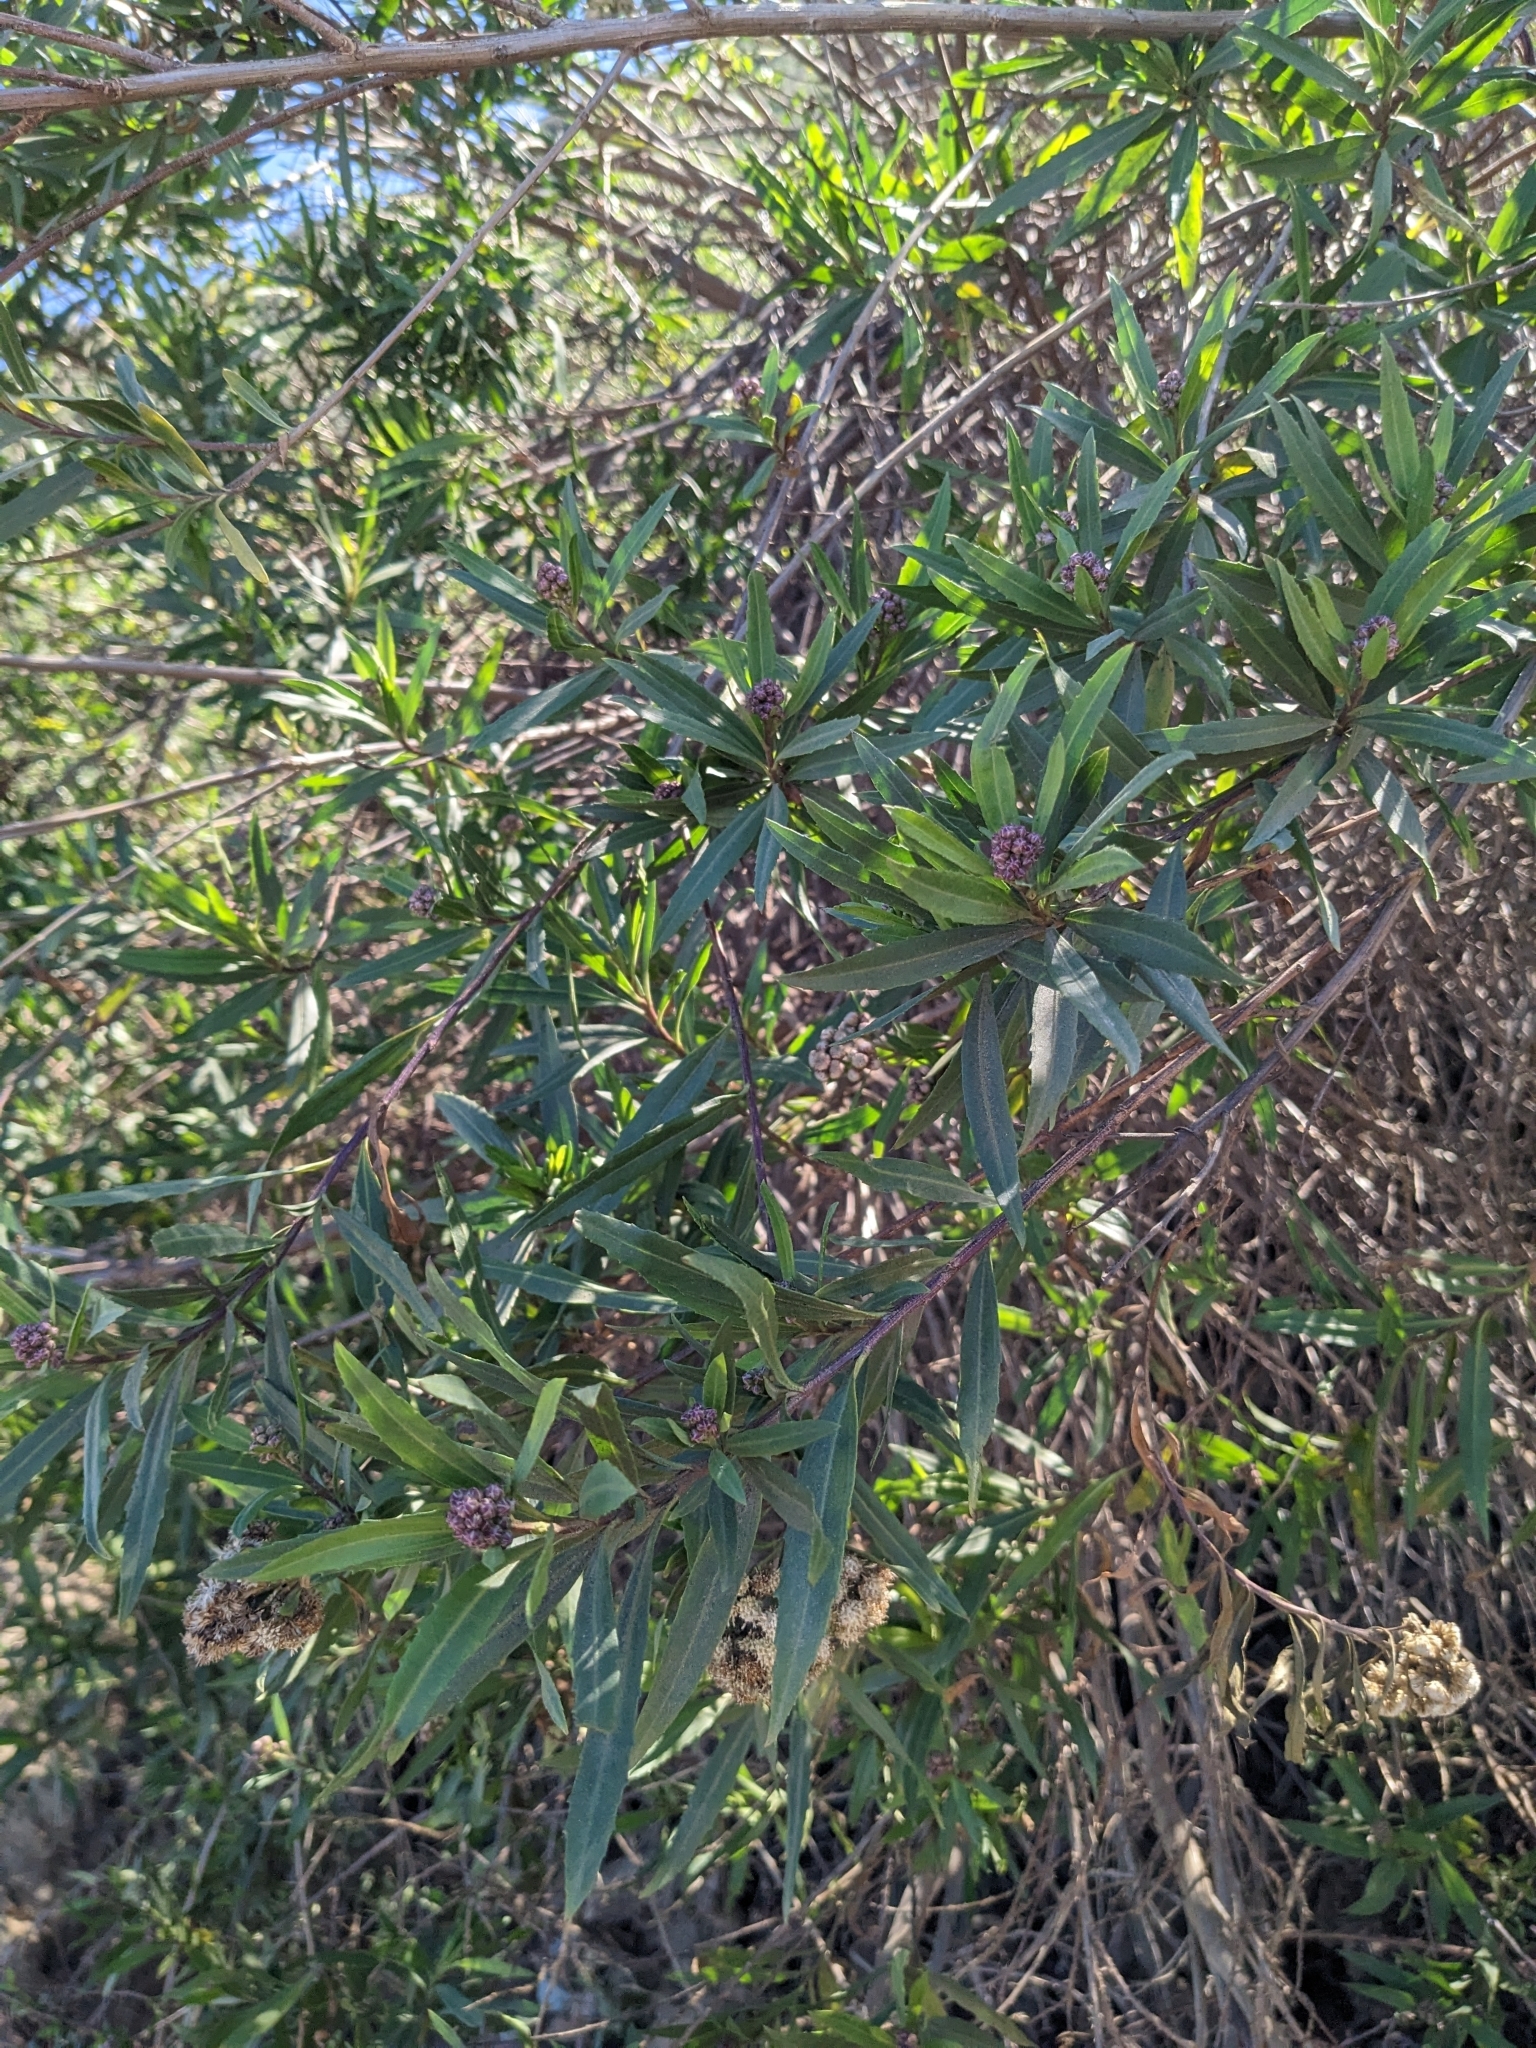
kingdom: Plantae
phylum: Tracheophyta
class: Magnoliopsida
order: Asterales
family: Asteraceae
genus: Baccharis
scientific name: Baccharis salicifolia
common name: Sticky baccharis
